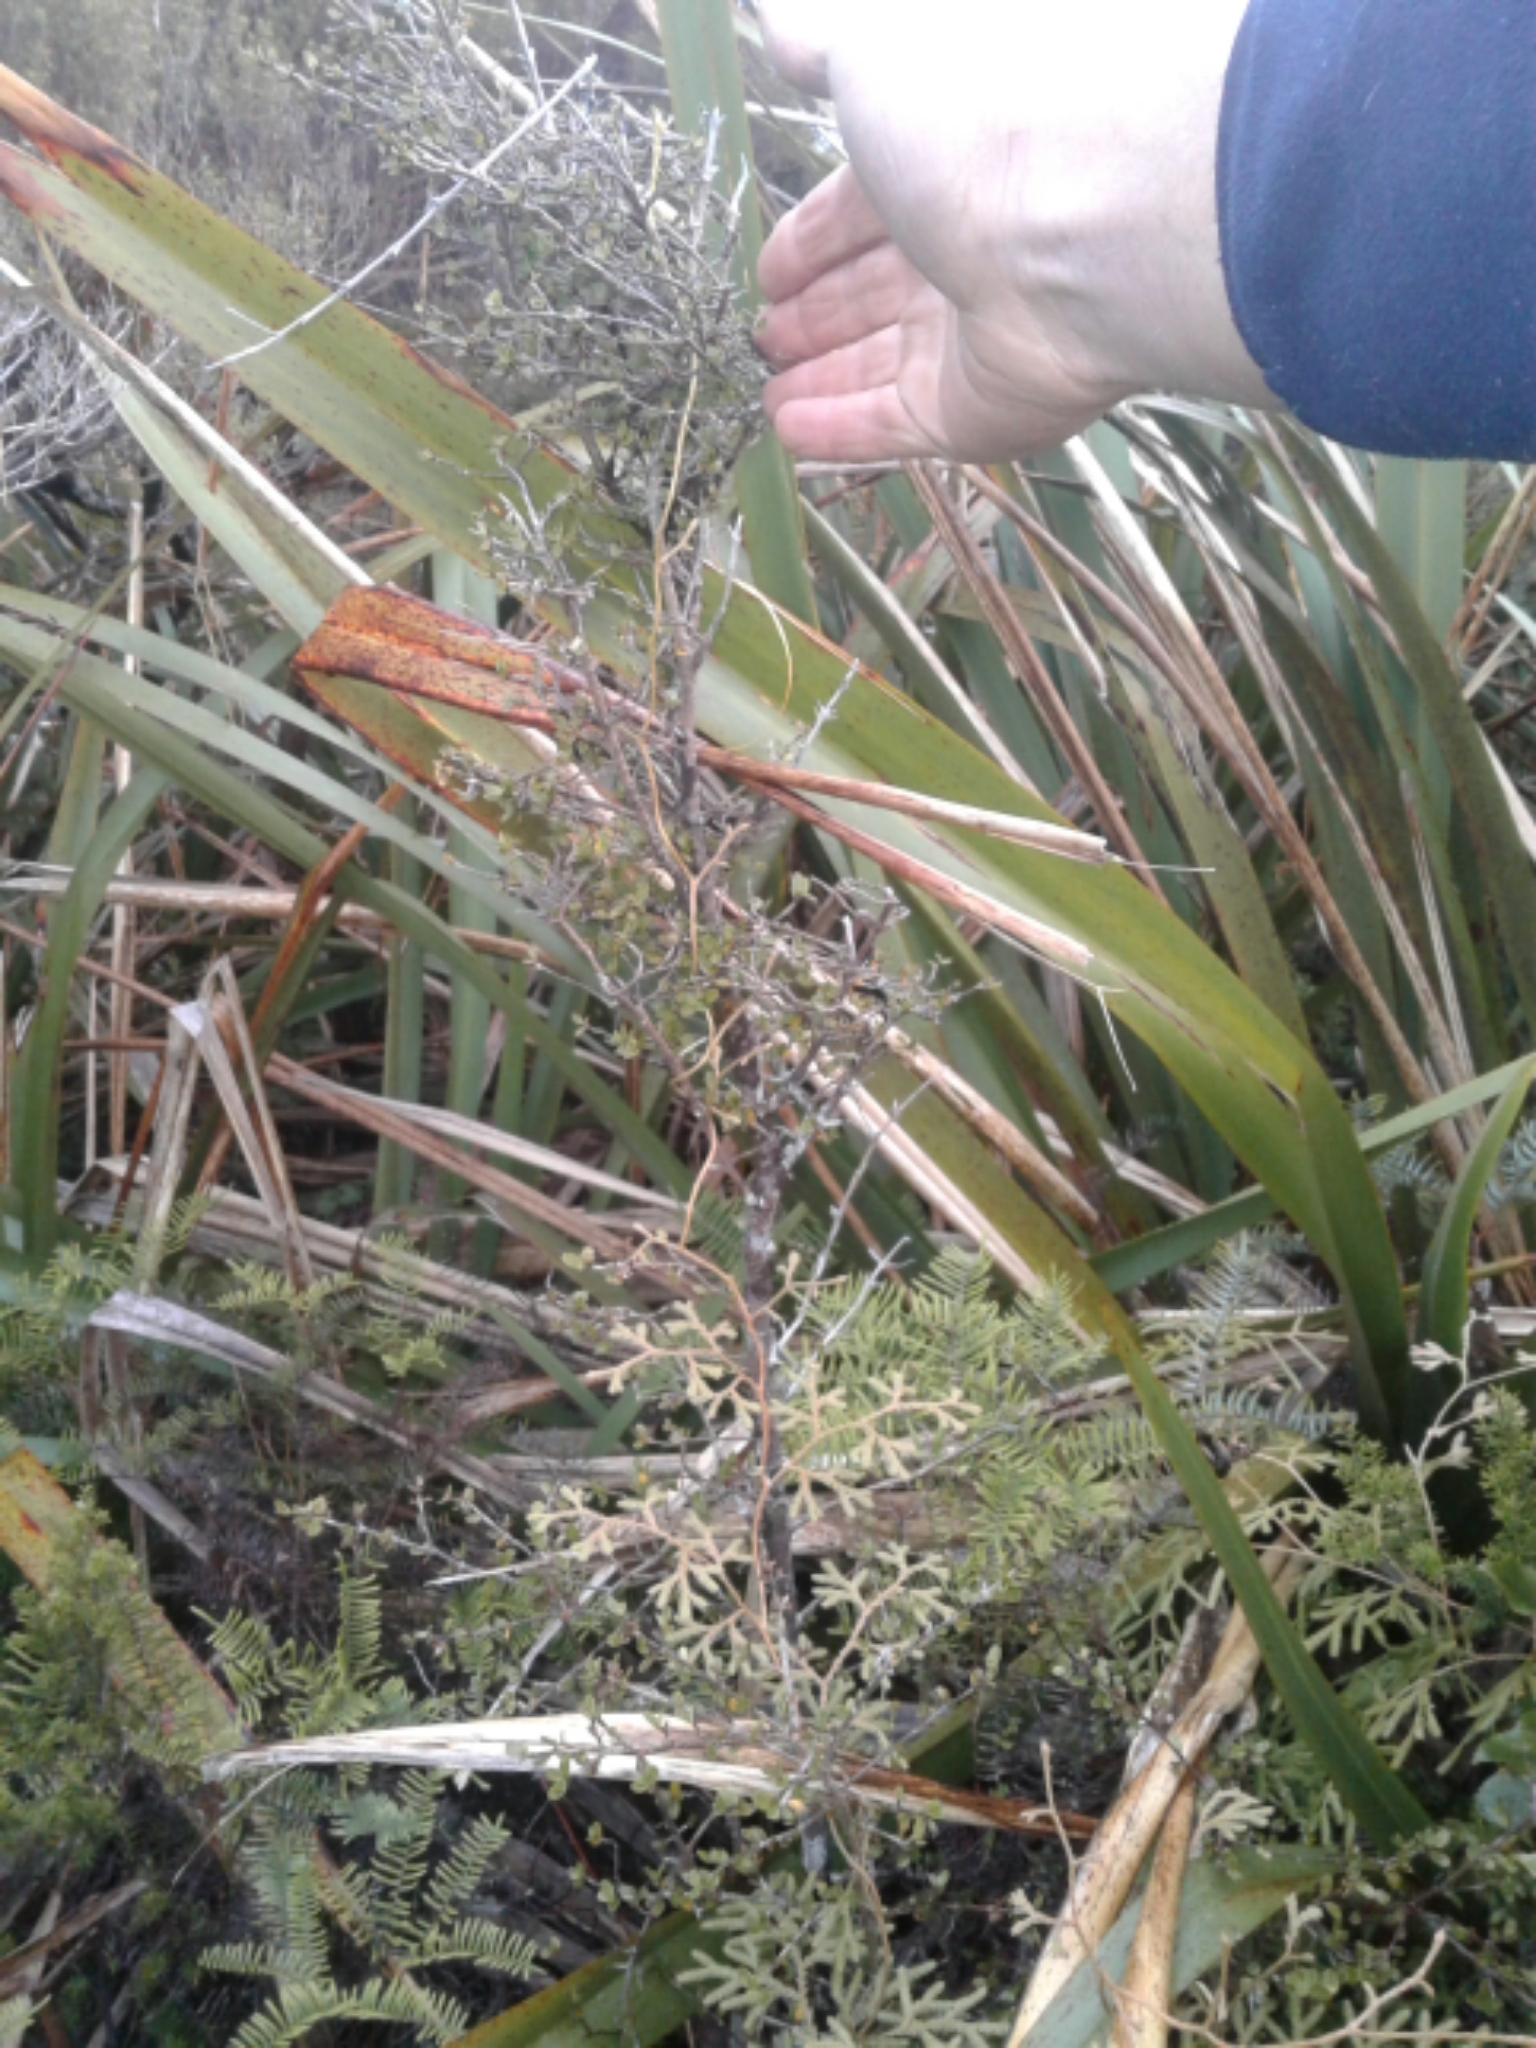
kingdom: Plantae
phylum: Tracheophyta
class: Lycopodiopsida
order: Lycopodiales
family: Lycopodiaceae
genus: Lycopodium
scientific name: Lycopodium volubile
